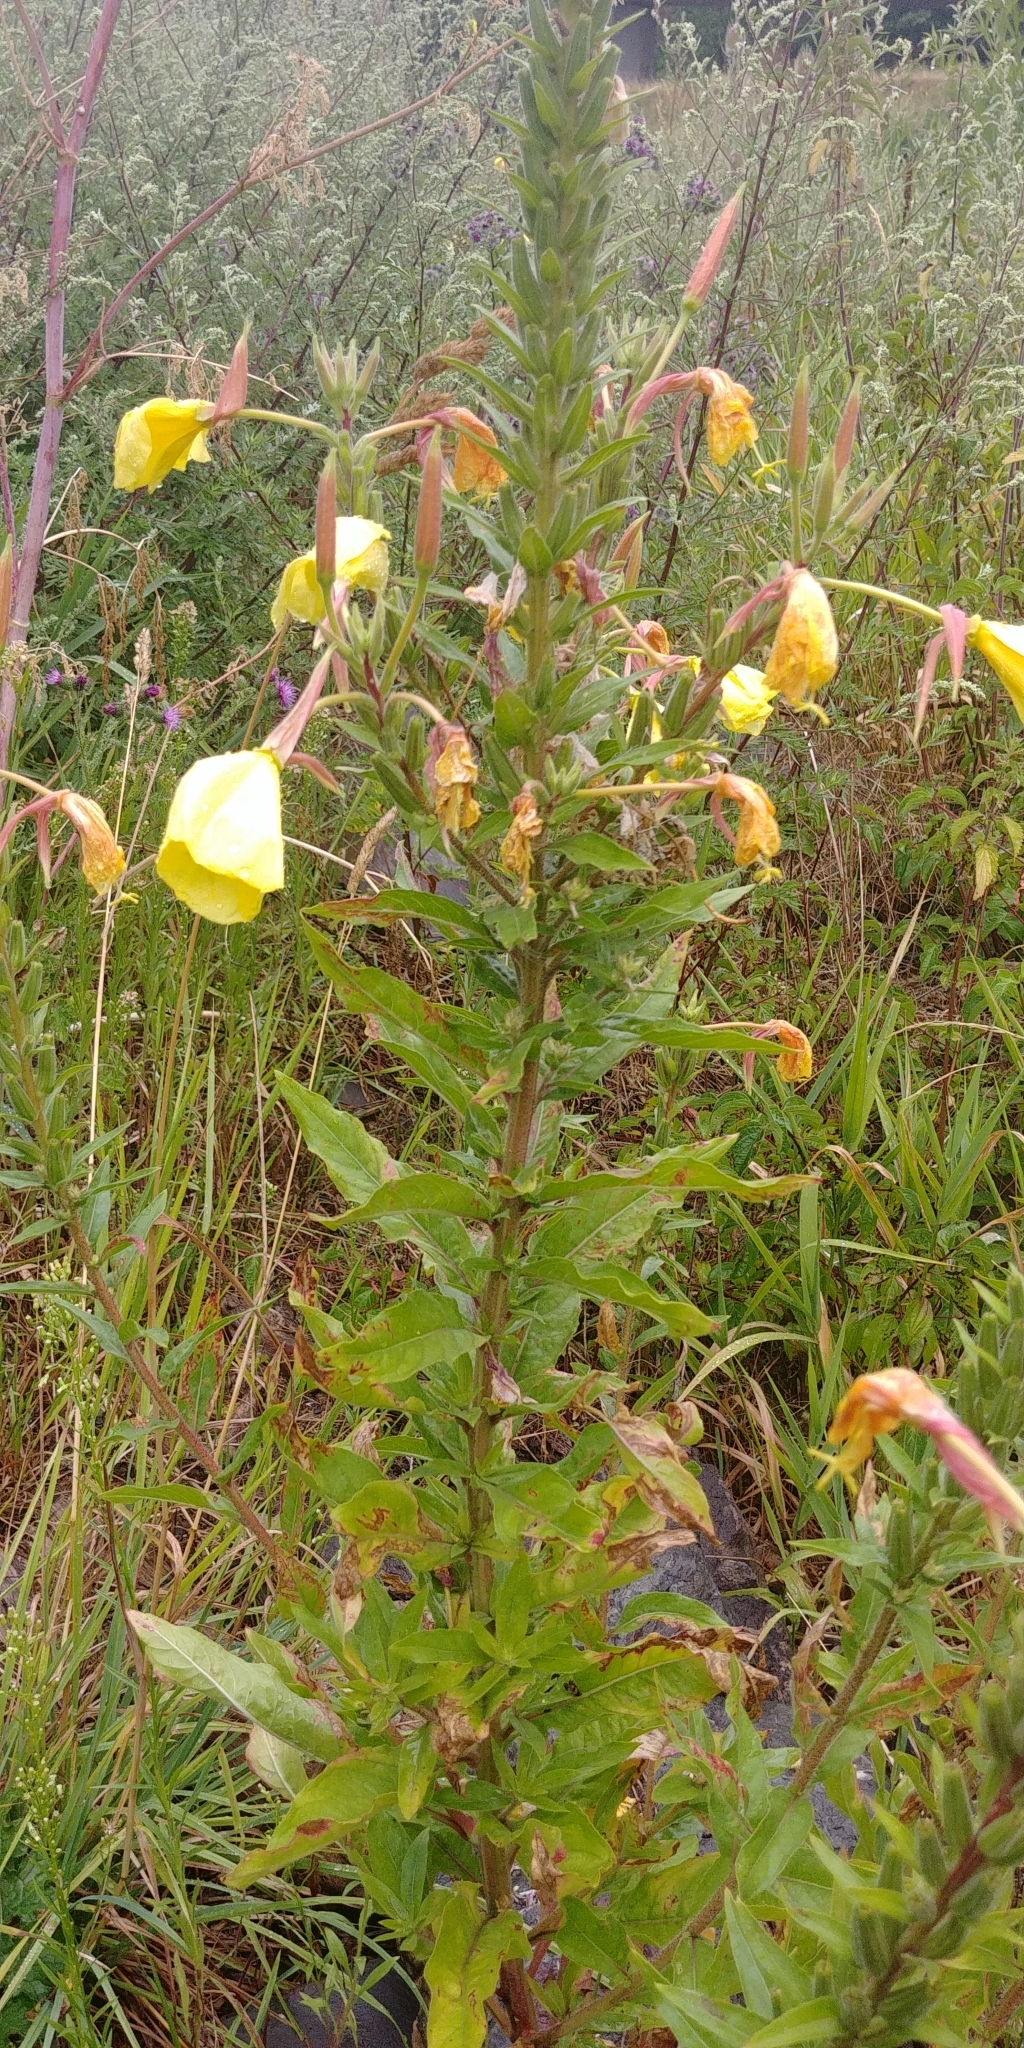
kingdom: Plantae
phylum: Tracheophyta
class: Magnoliopsida
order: Myrtales
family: Onagraceae
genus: Oenothera
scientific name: Oenothera glazioviana
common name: Large-flowered evening-primrose
